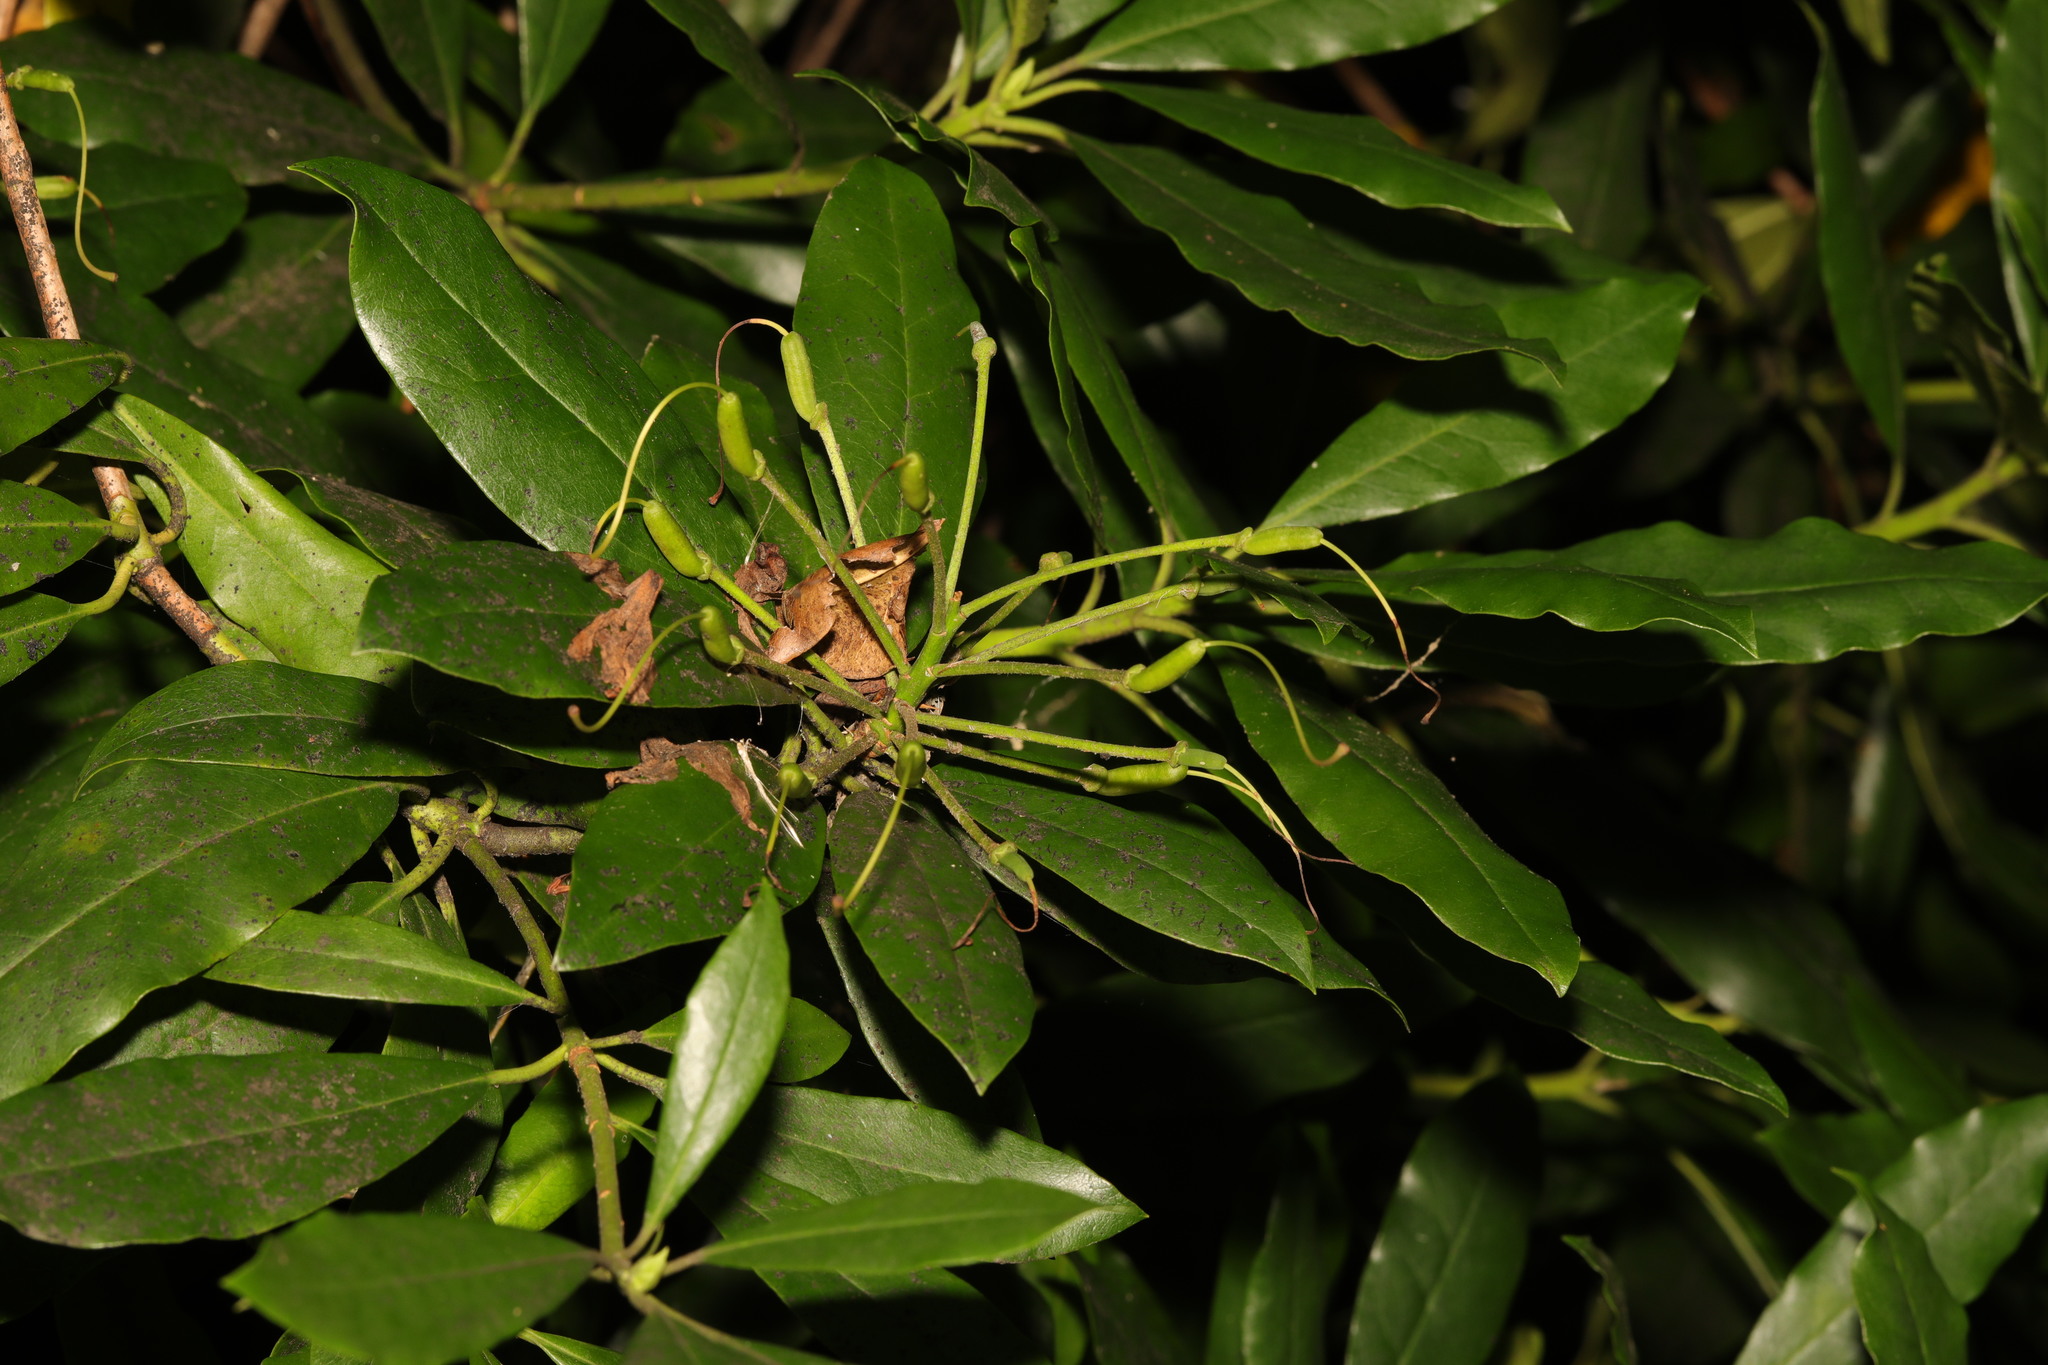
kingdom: Plantae
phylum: Tracheophyta
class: Magnoliopsida
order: Ericales
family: Ericaceae
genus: Rhododendron
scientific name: Rhododendron ponticum
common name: Rhododendron
